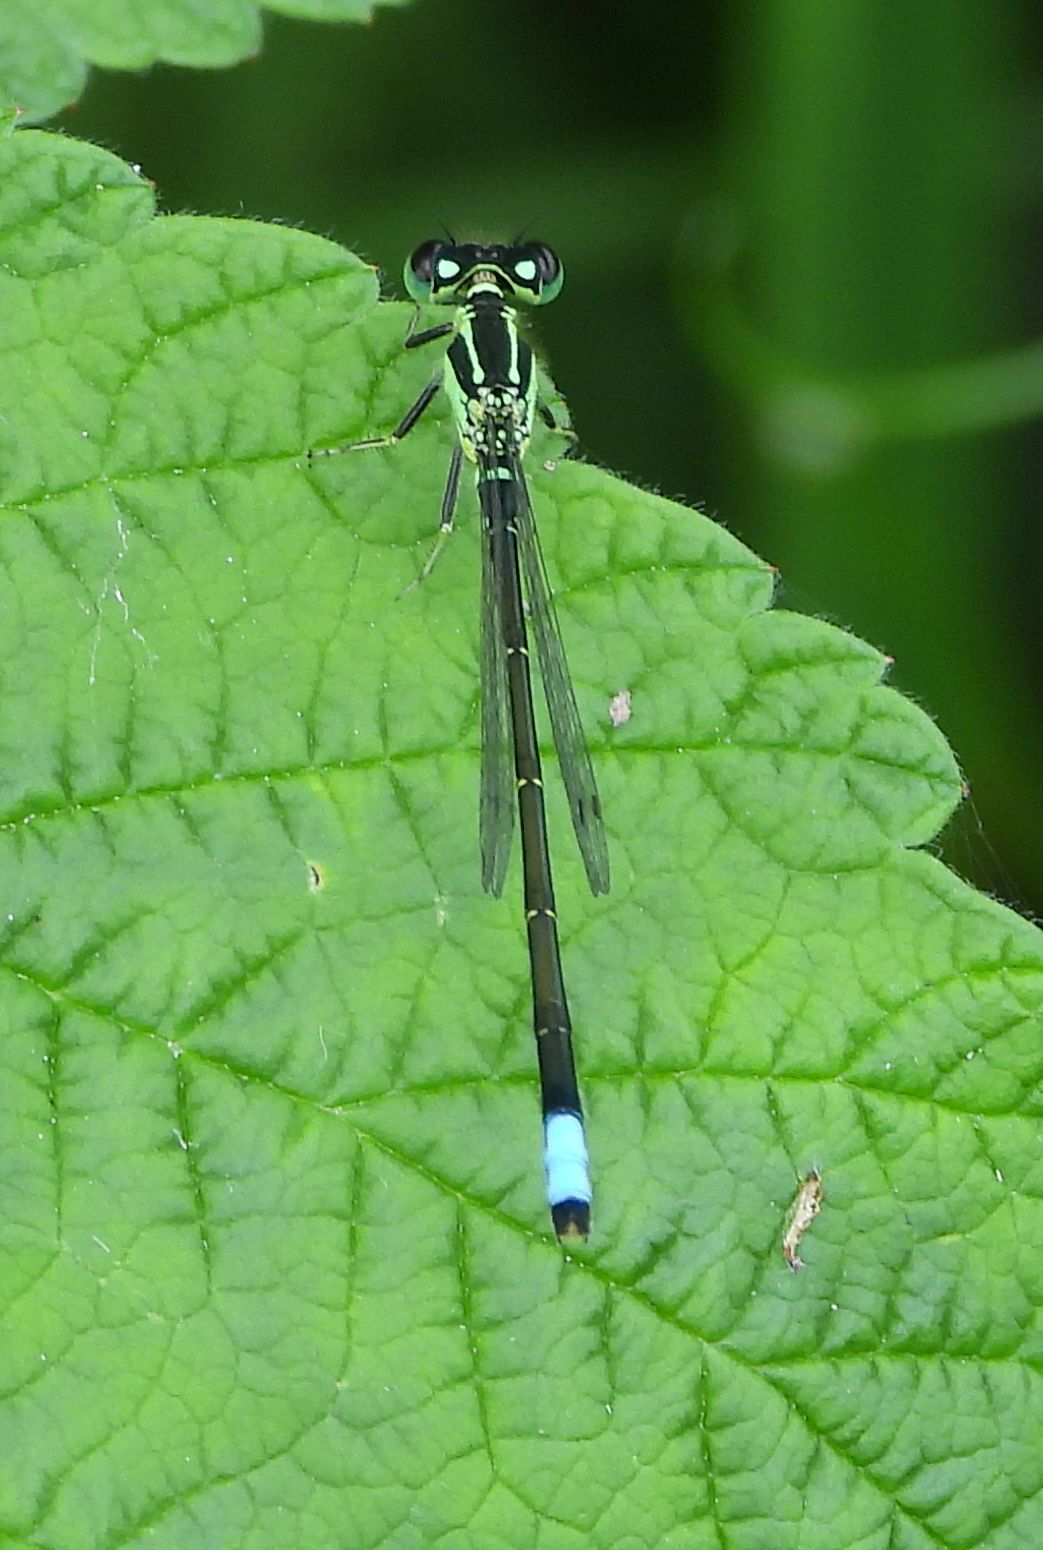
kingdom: Animalia
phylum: Arthropoda
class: Insecta
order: Odonata
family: Coenagrionidae
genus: Ischnura
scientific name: Ischnura verticalis
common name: Eastern forktail
